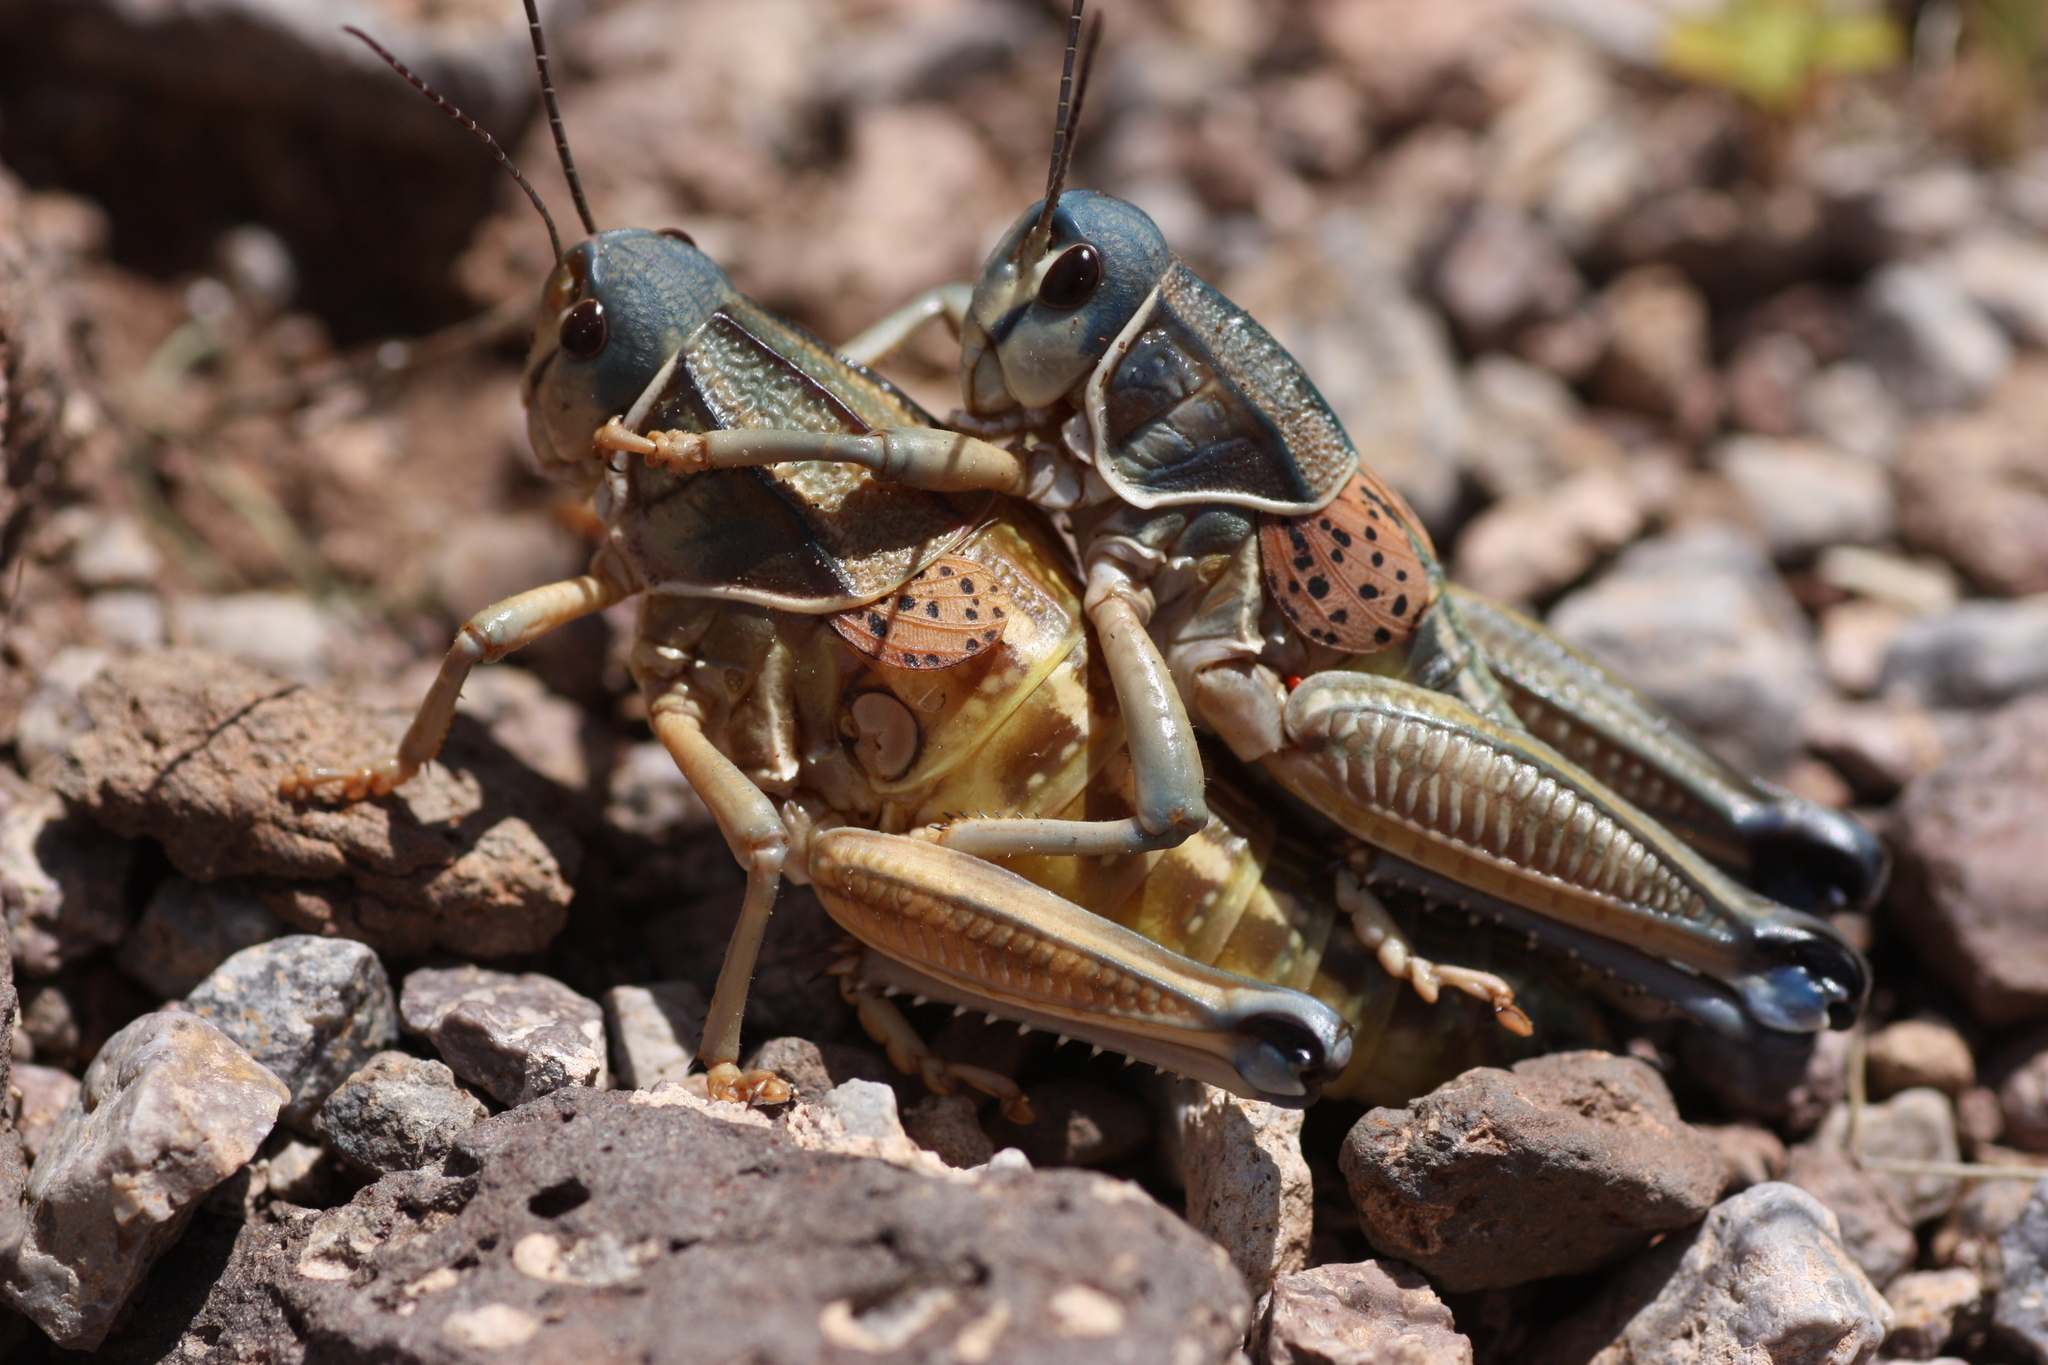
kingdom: Animalia
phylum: Arthropoda
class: Insecta
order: Orthoptera
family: Romaleidae
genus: Brachystola
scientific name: Brachystola magna
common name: Plains lubber grasshopper
